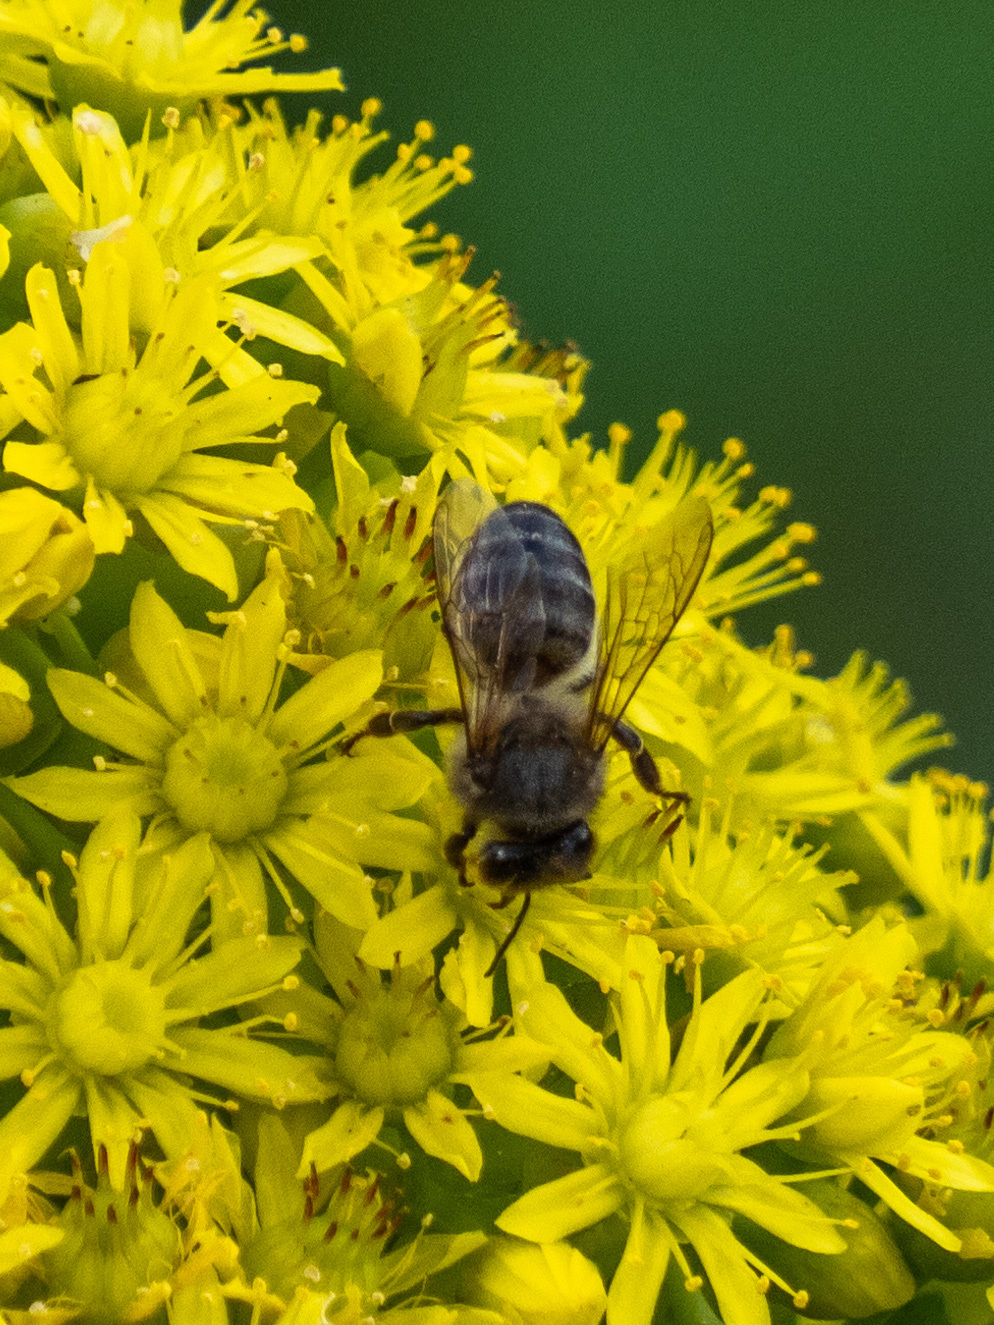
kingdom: Animalia
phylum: Arthropoda
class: Insecta
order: Hymenoptera
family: Apidae
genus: Apis
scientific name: Apis mellifera
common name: Honey bee
